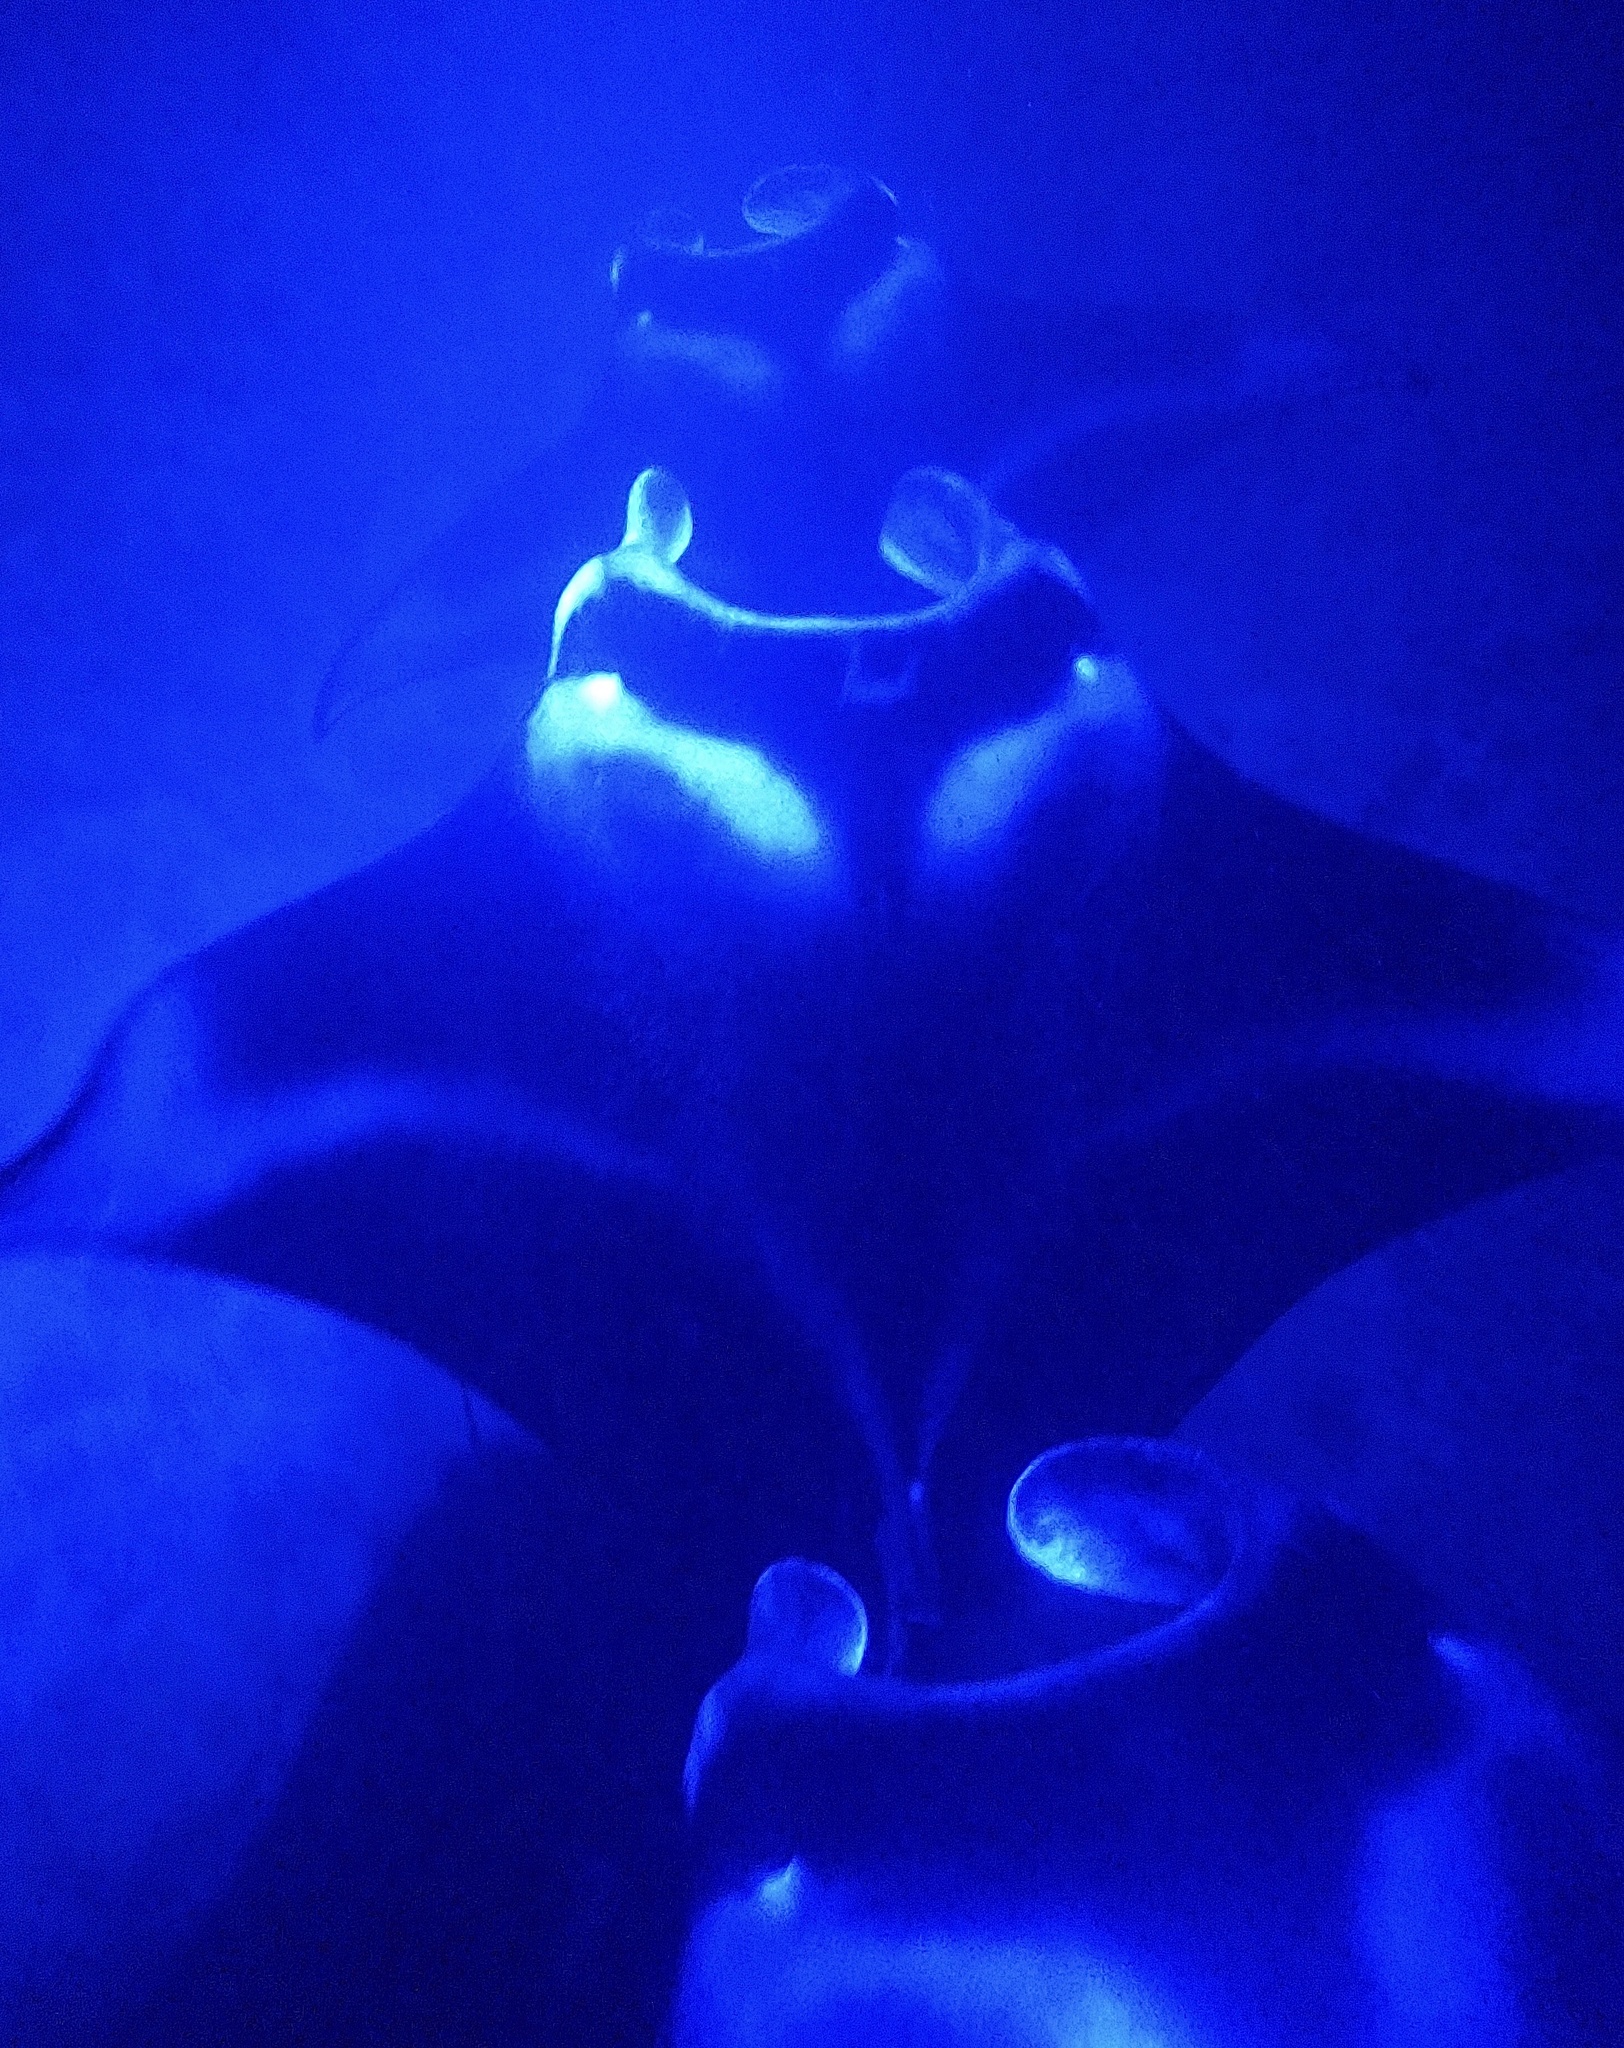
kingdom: Animalia
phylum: Chordata
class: Elasmobranchii
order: Myliobatiformes
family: Myliobatidae
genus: Mobula
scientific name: Mobula alfredi
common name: Reef manta ray
